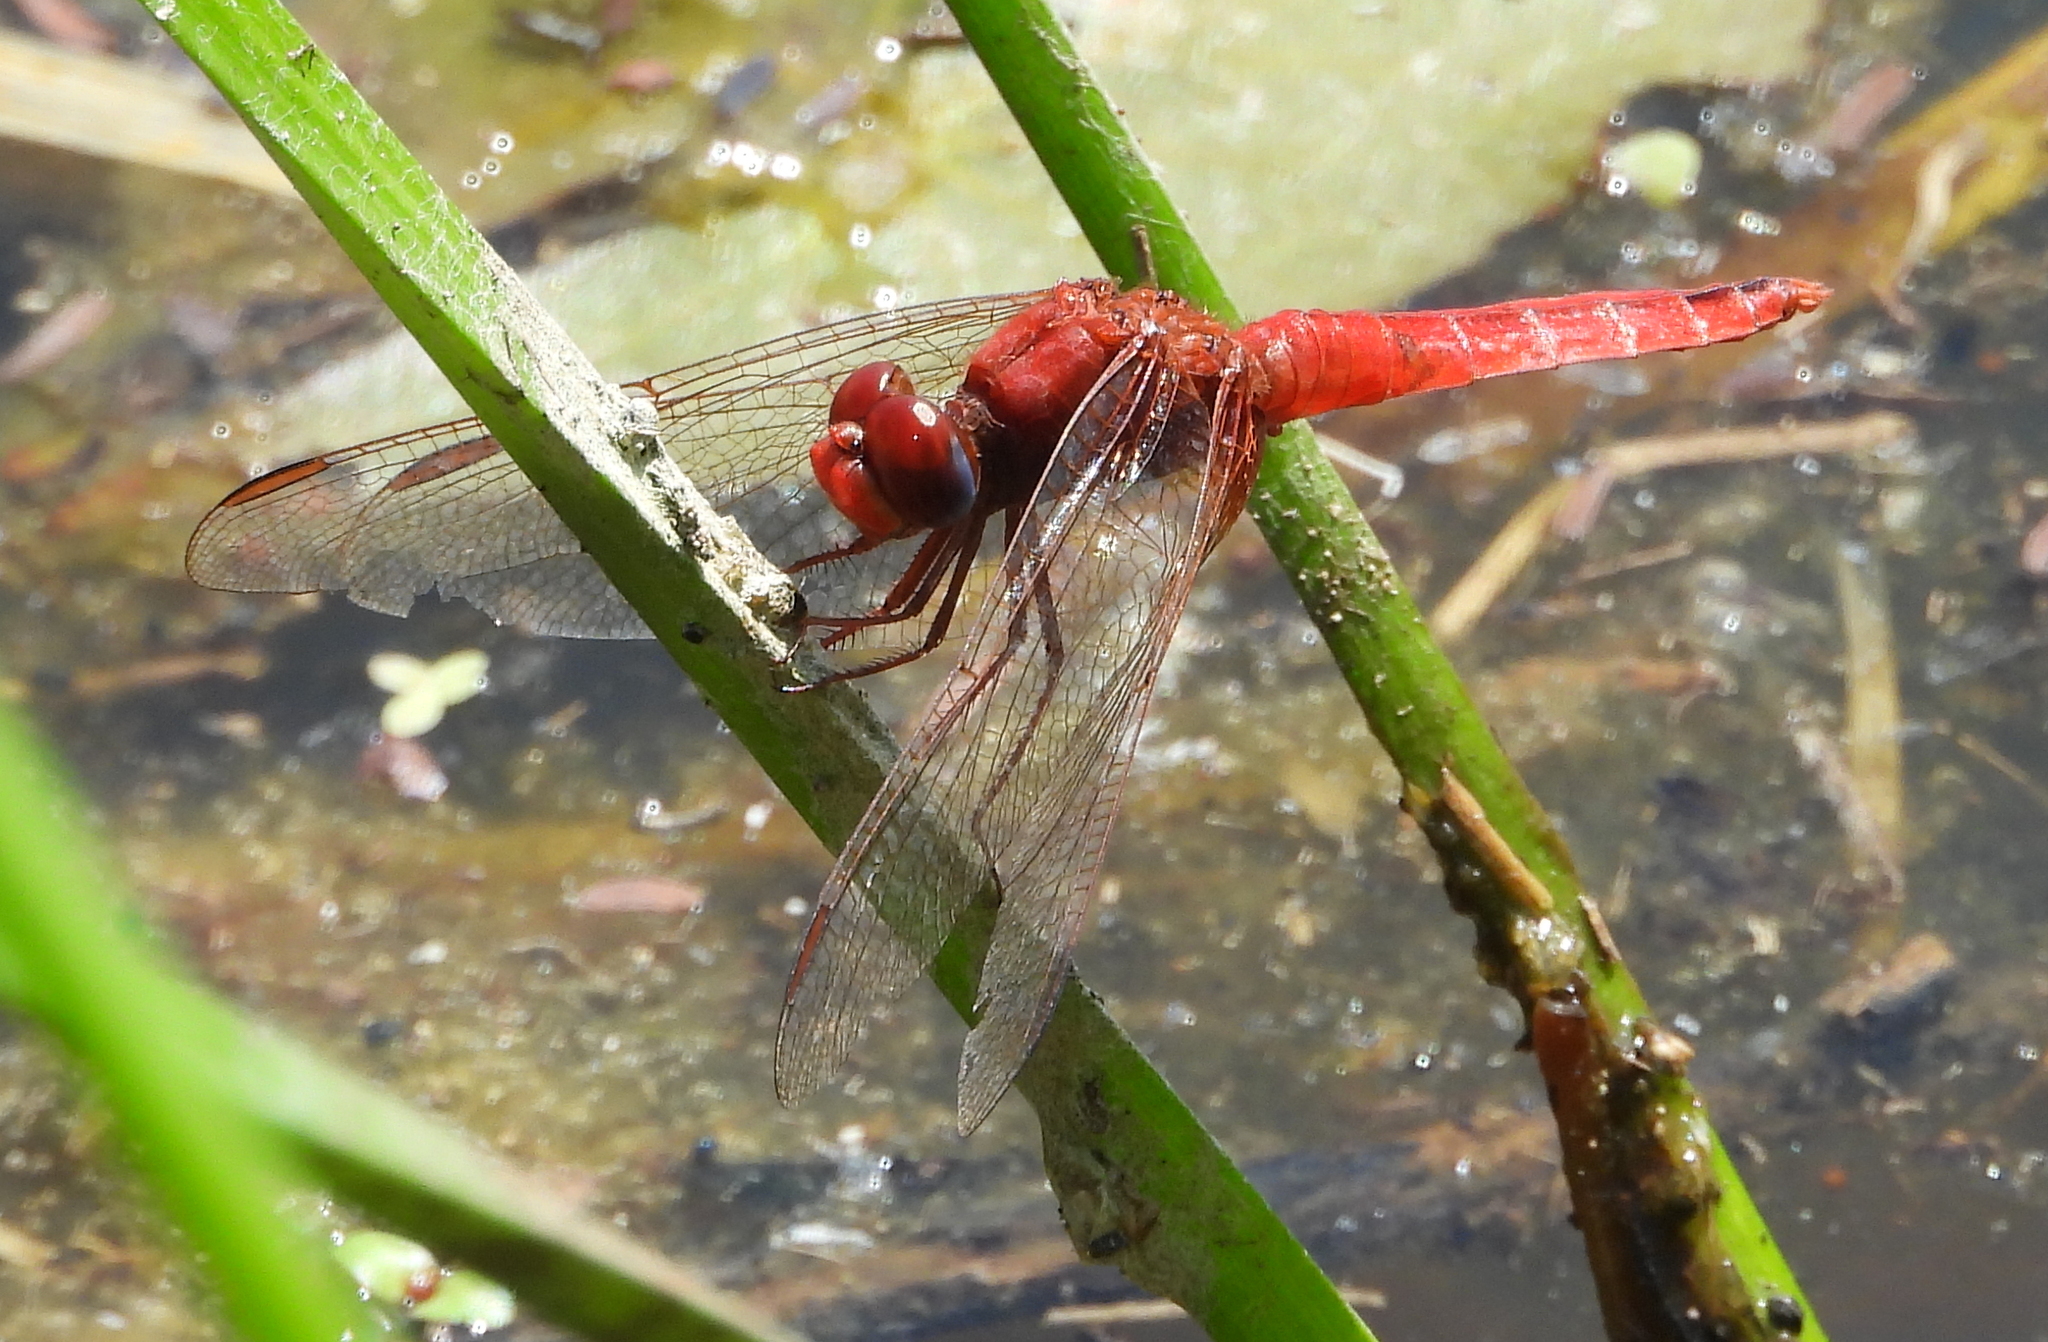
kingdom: Animalia
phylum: Arthropoda
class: Insecta
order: Odonata
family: Libellulidae
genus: Crocothemis
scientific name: Crocothemis erythraea
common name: Scarlet dragonfly
